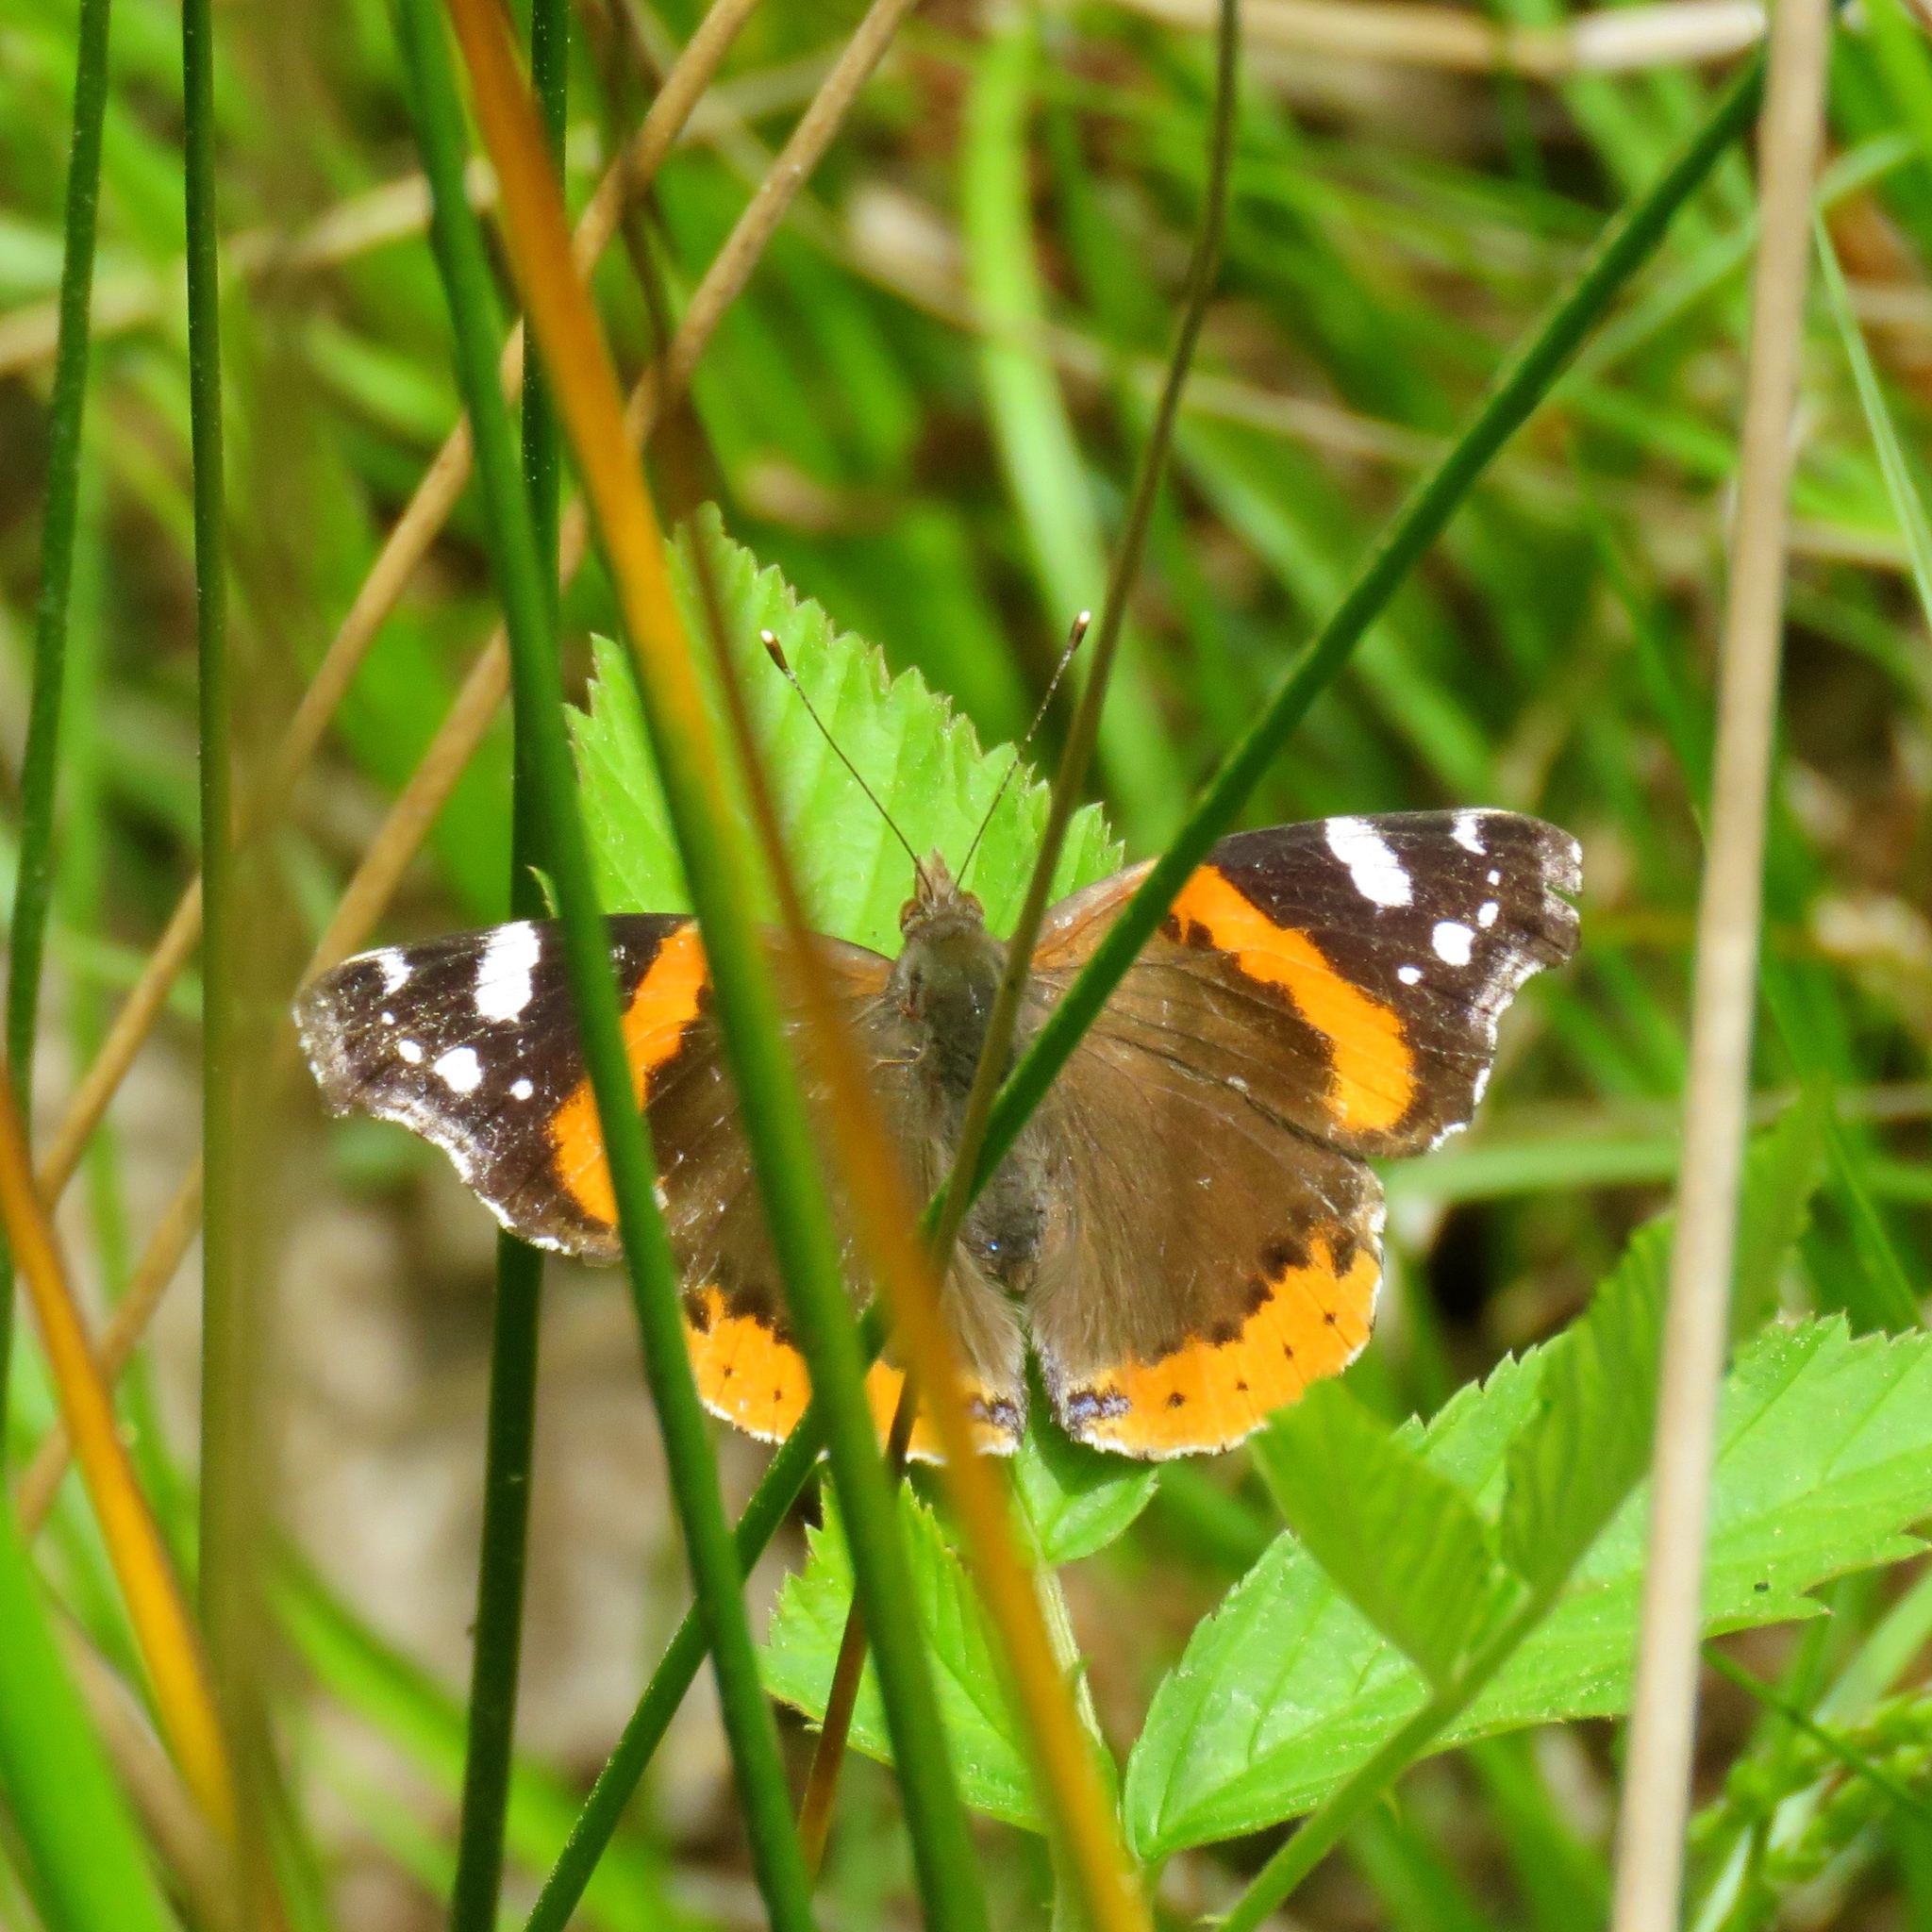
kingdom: Animalia
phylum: Arthropoda
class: Insecta
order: Lepidoptera
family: Nymphalidae
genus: Vanessa
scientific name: Vanessa atalanta
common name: Red admiral
